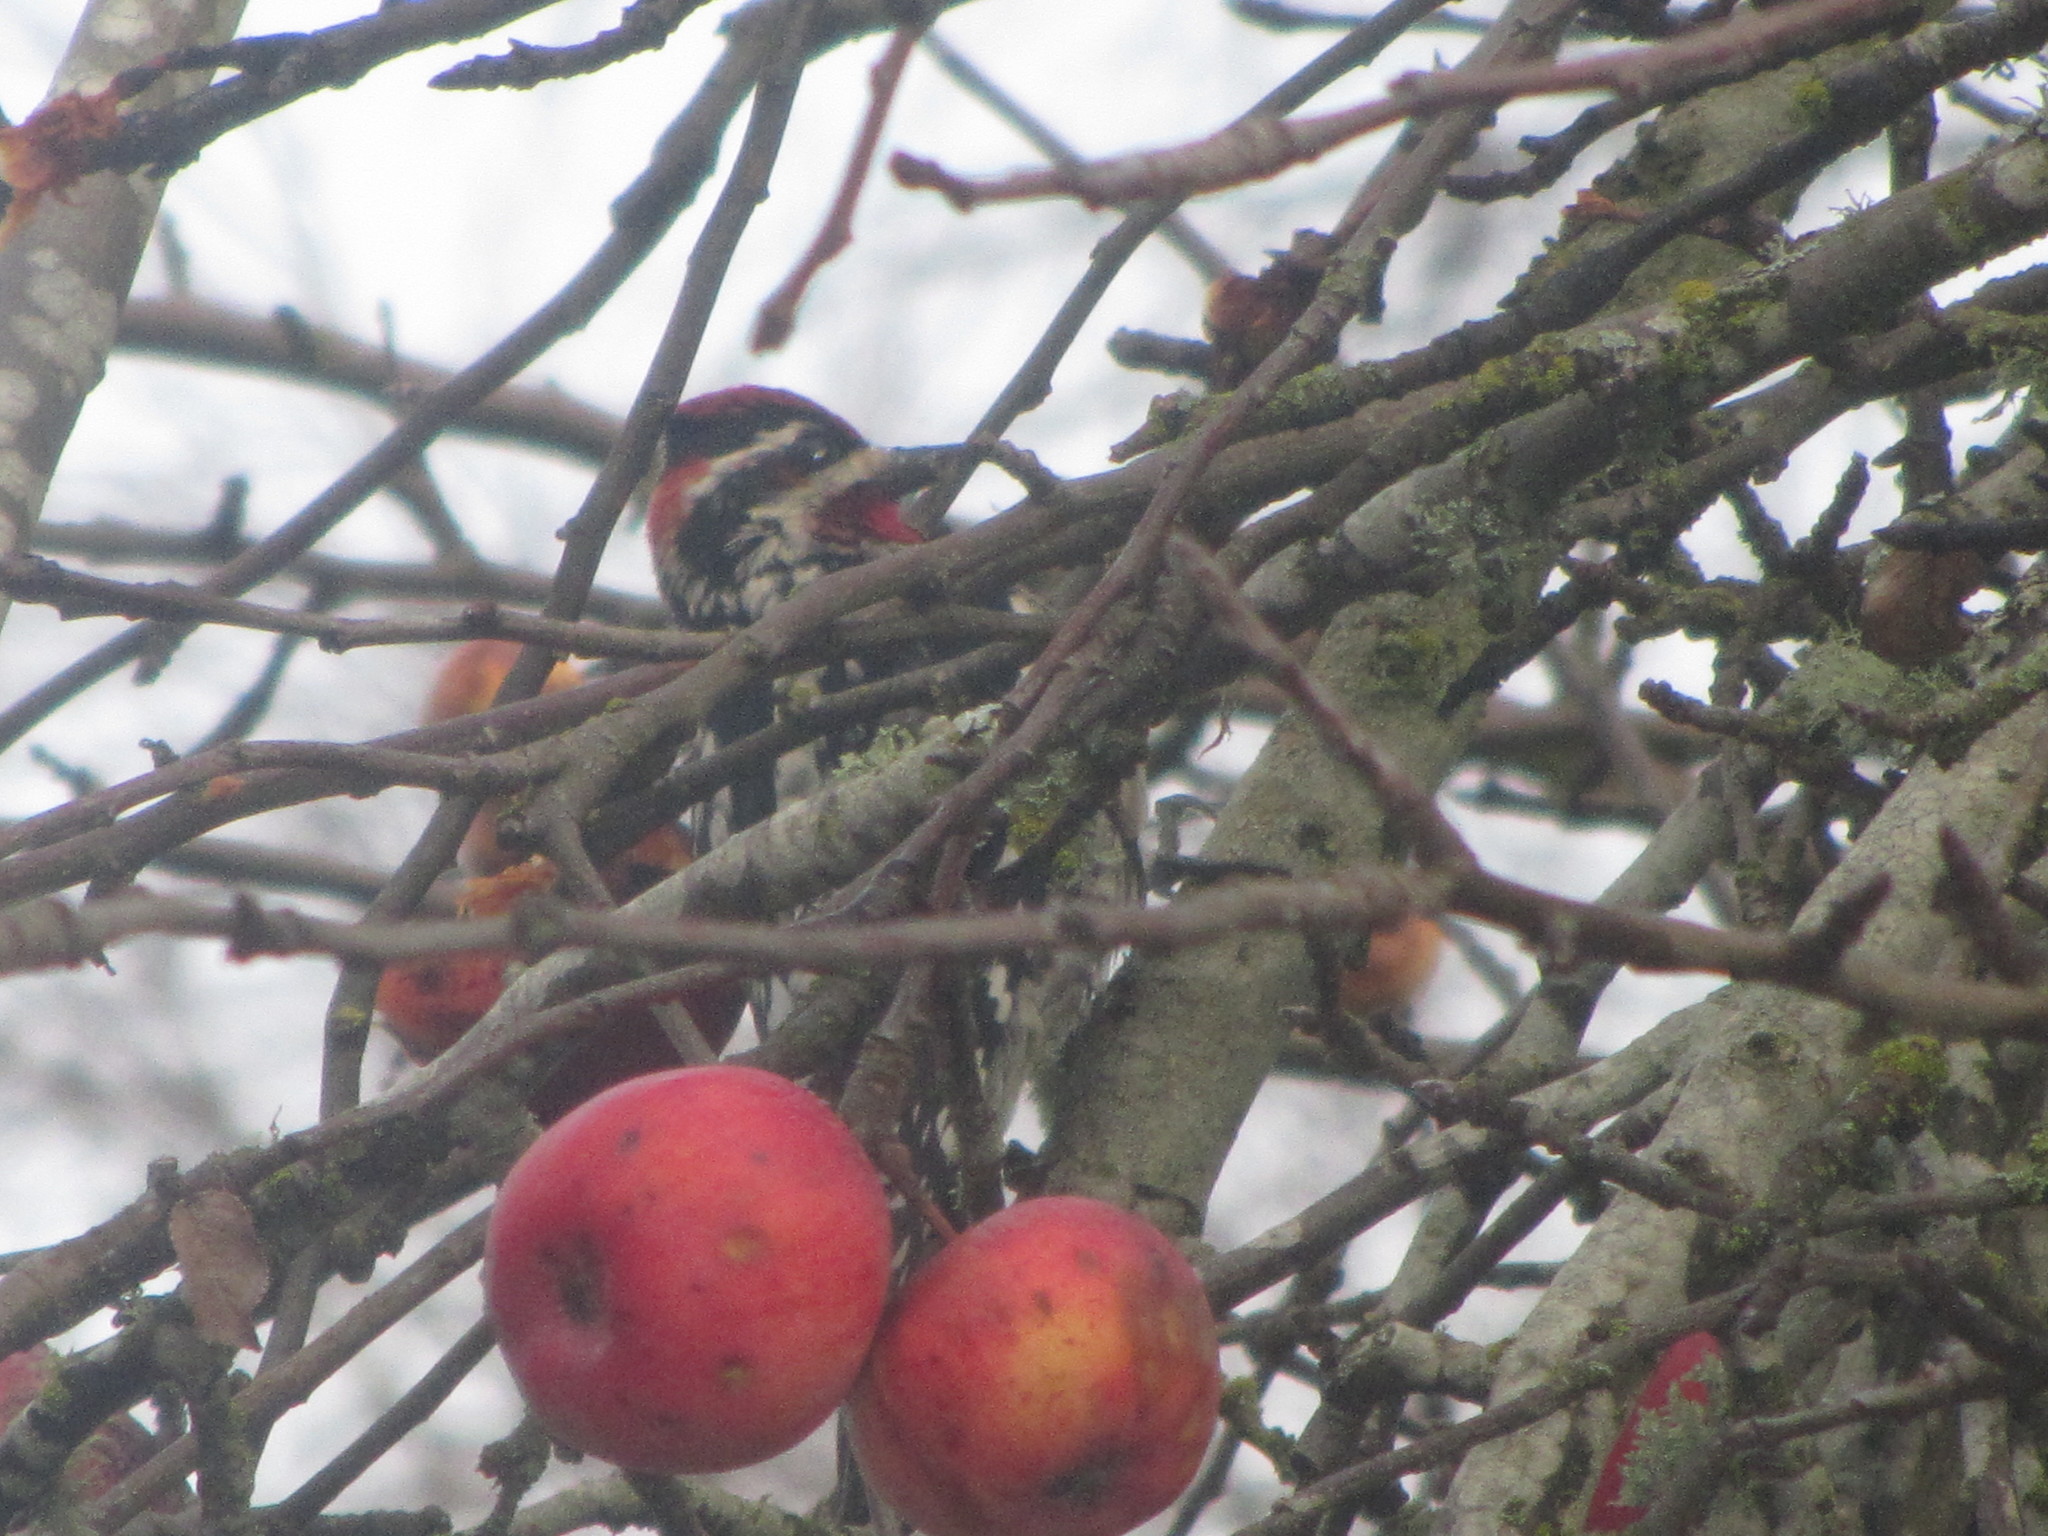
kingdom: Animalia
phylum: Chordata
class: Aves
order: Piciformes
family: Picidae
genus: Sphyrapicus
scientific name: Sphyrapicus nuchalis
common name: Red-naped sapsucker
